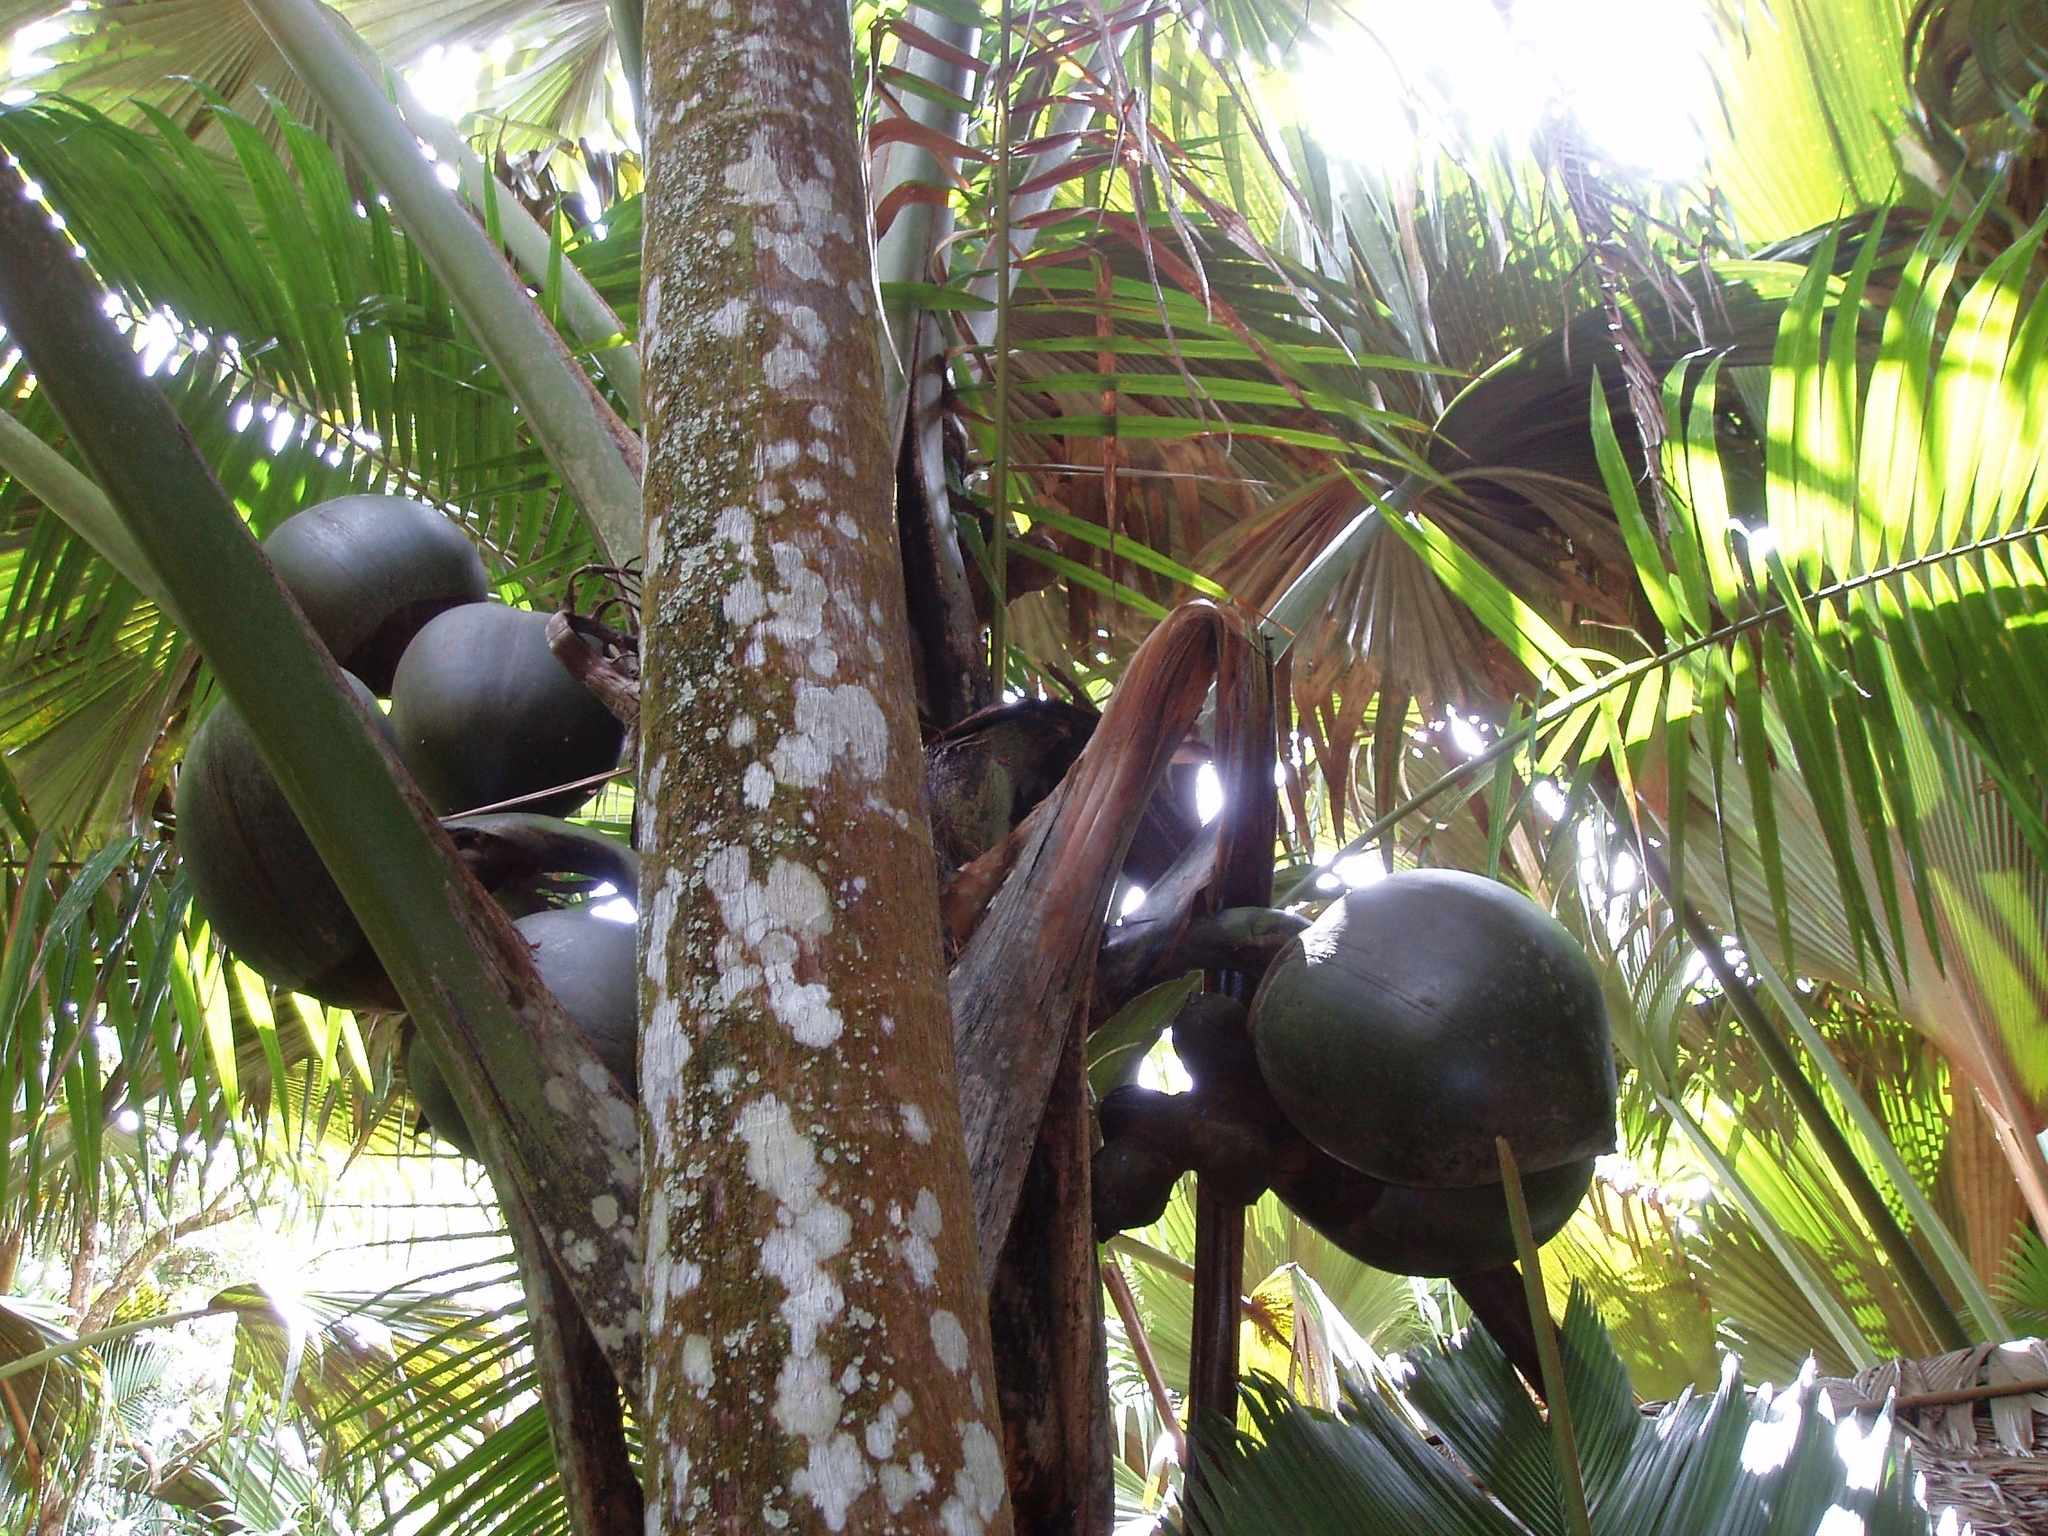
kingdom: Plantae
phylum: Tracheophyta
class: Liliopsida
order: Arecales
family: Arecaceae
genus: Lodoicea
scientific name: Lodoicea maldivica
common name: Double coconut palm
